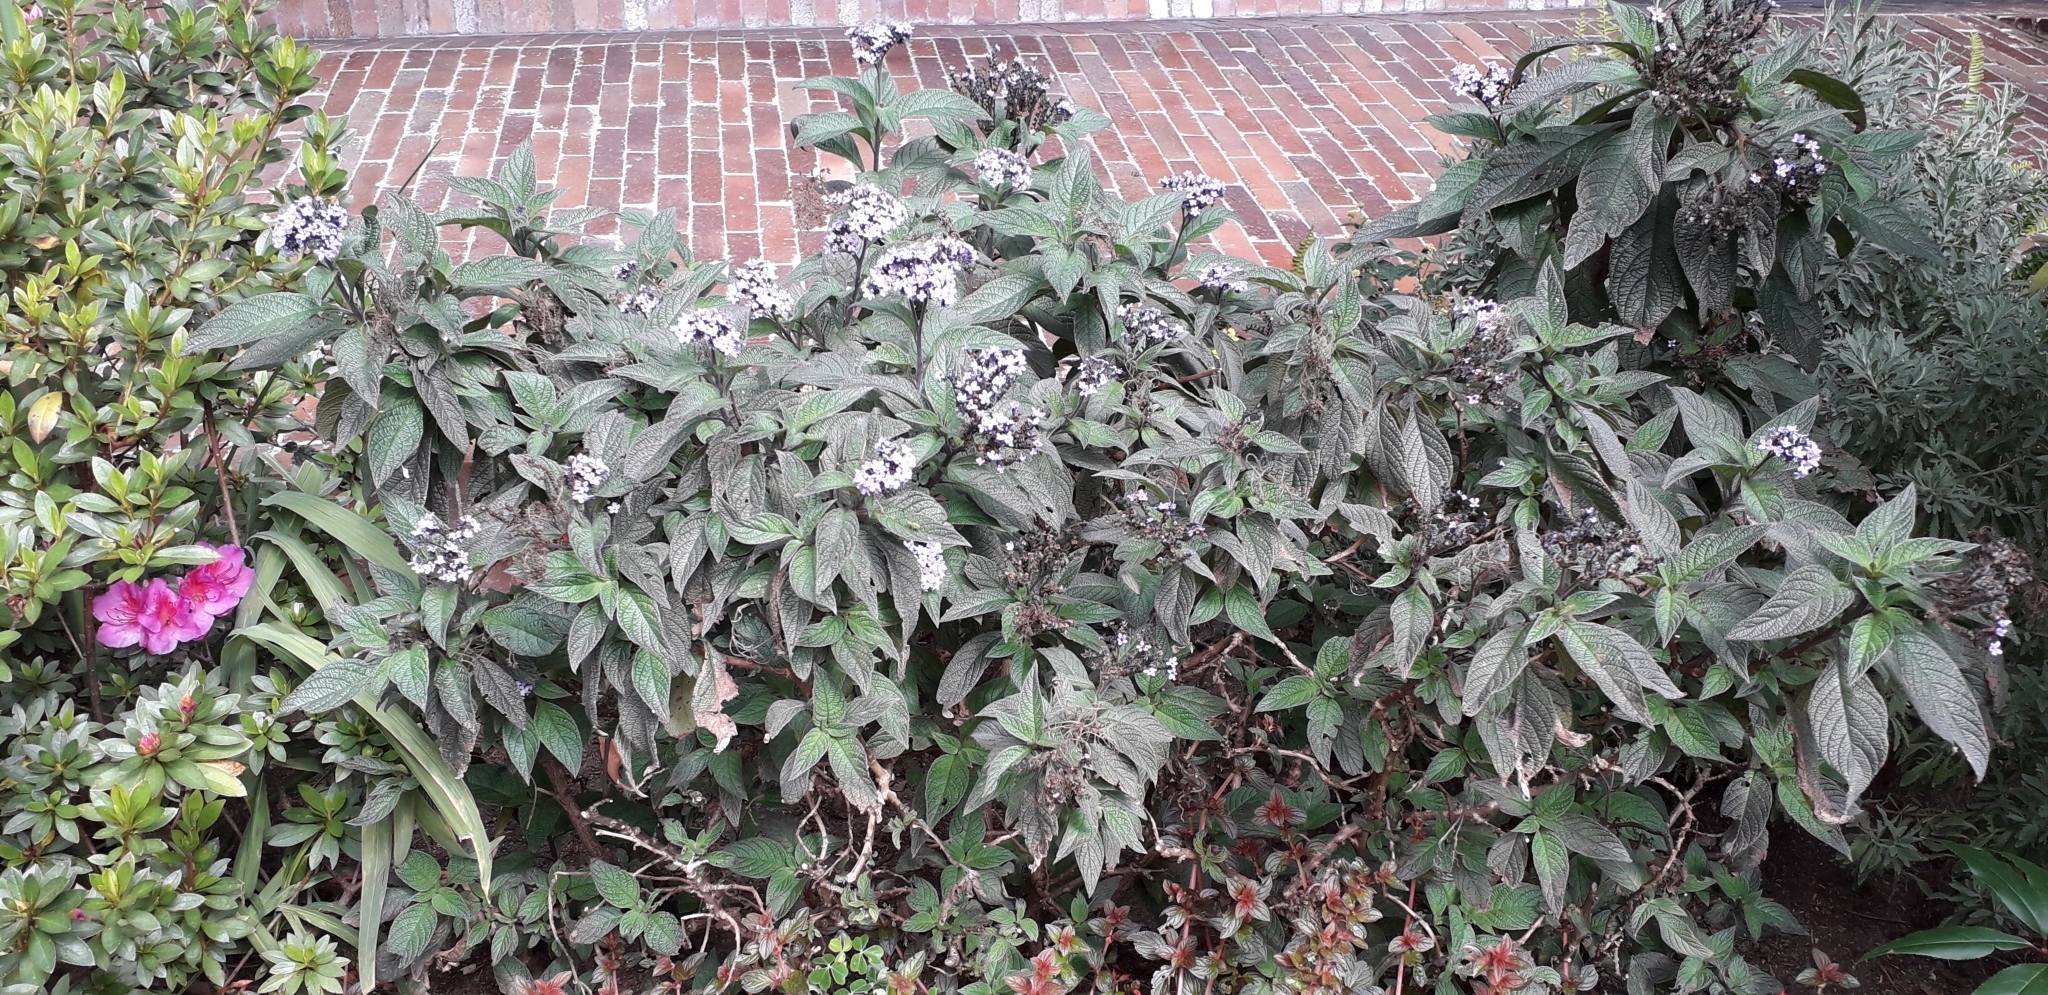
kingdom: Animalia
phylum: Arthropoda
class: Insecta
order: Hymenoptera
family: Apidae
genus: Bombus
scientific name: Bombus hortulanus
